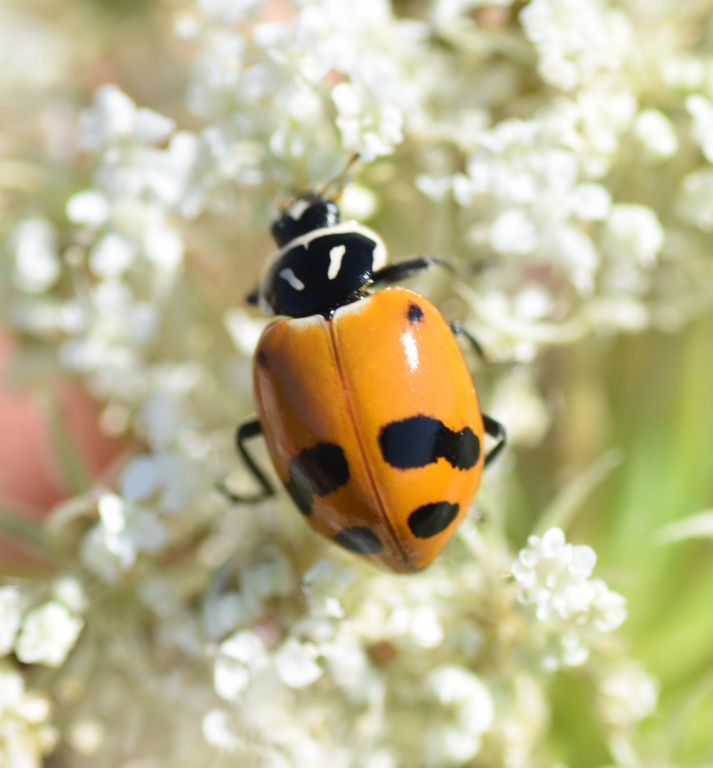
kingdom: Animalia
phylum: Arthropoda
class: Insecta
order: Coleoptera
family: Coccinellidae
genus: Hippodamia
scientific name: Hippodamia glacialis
